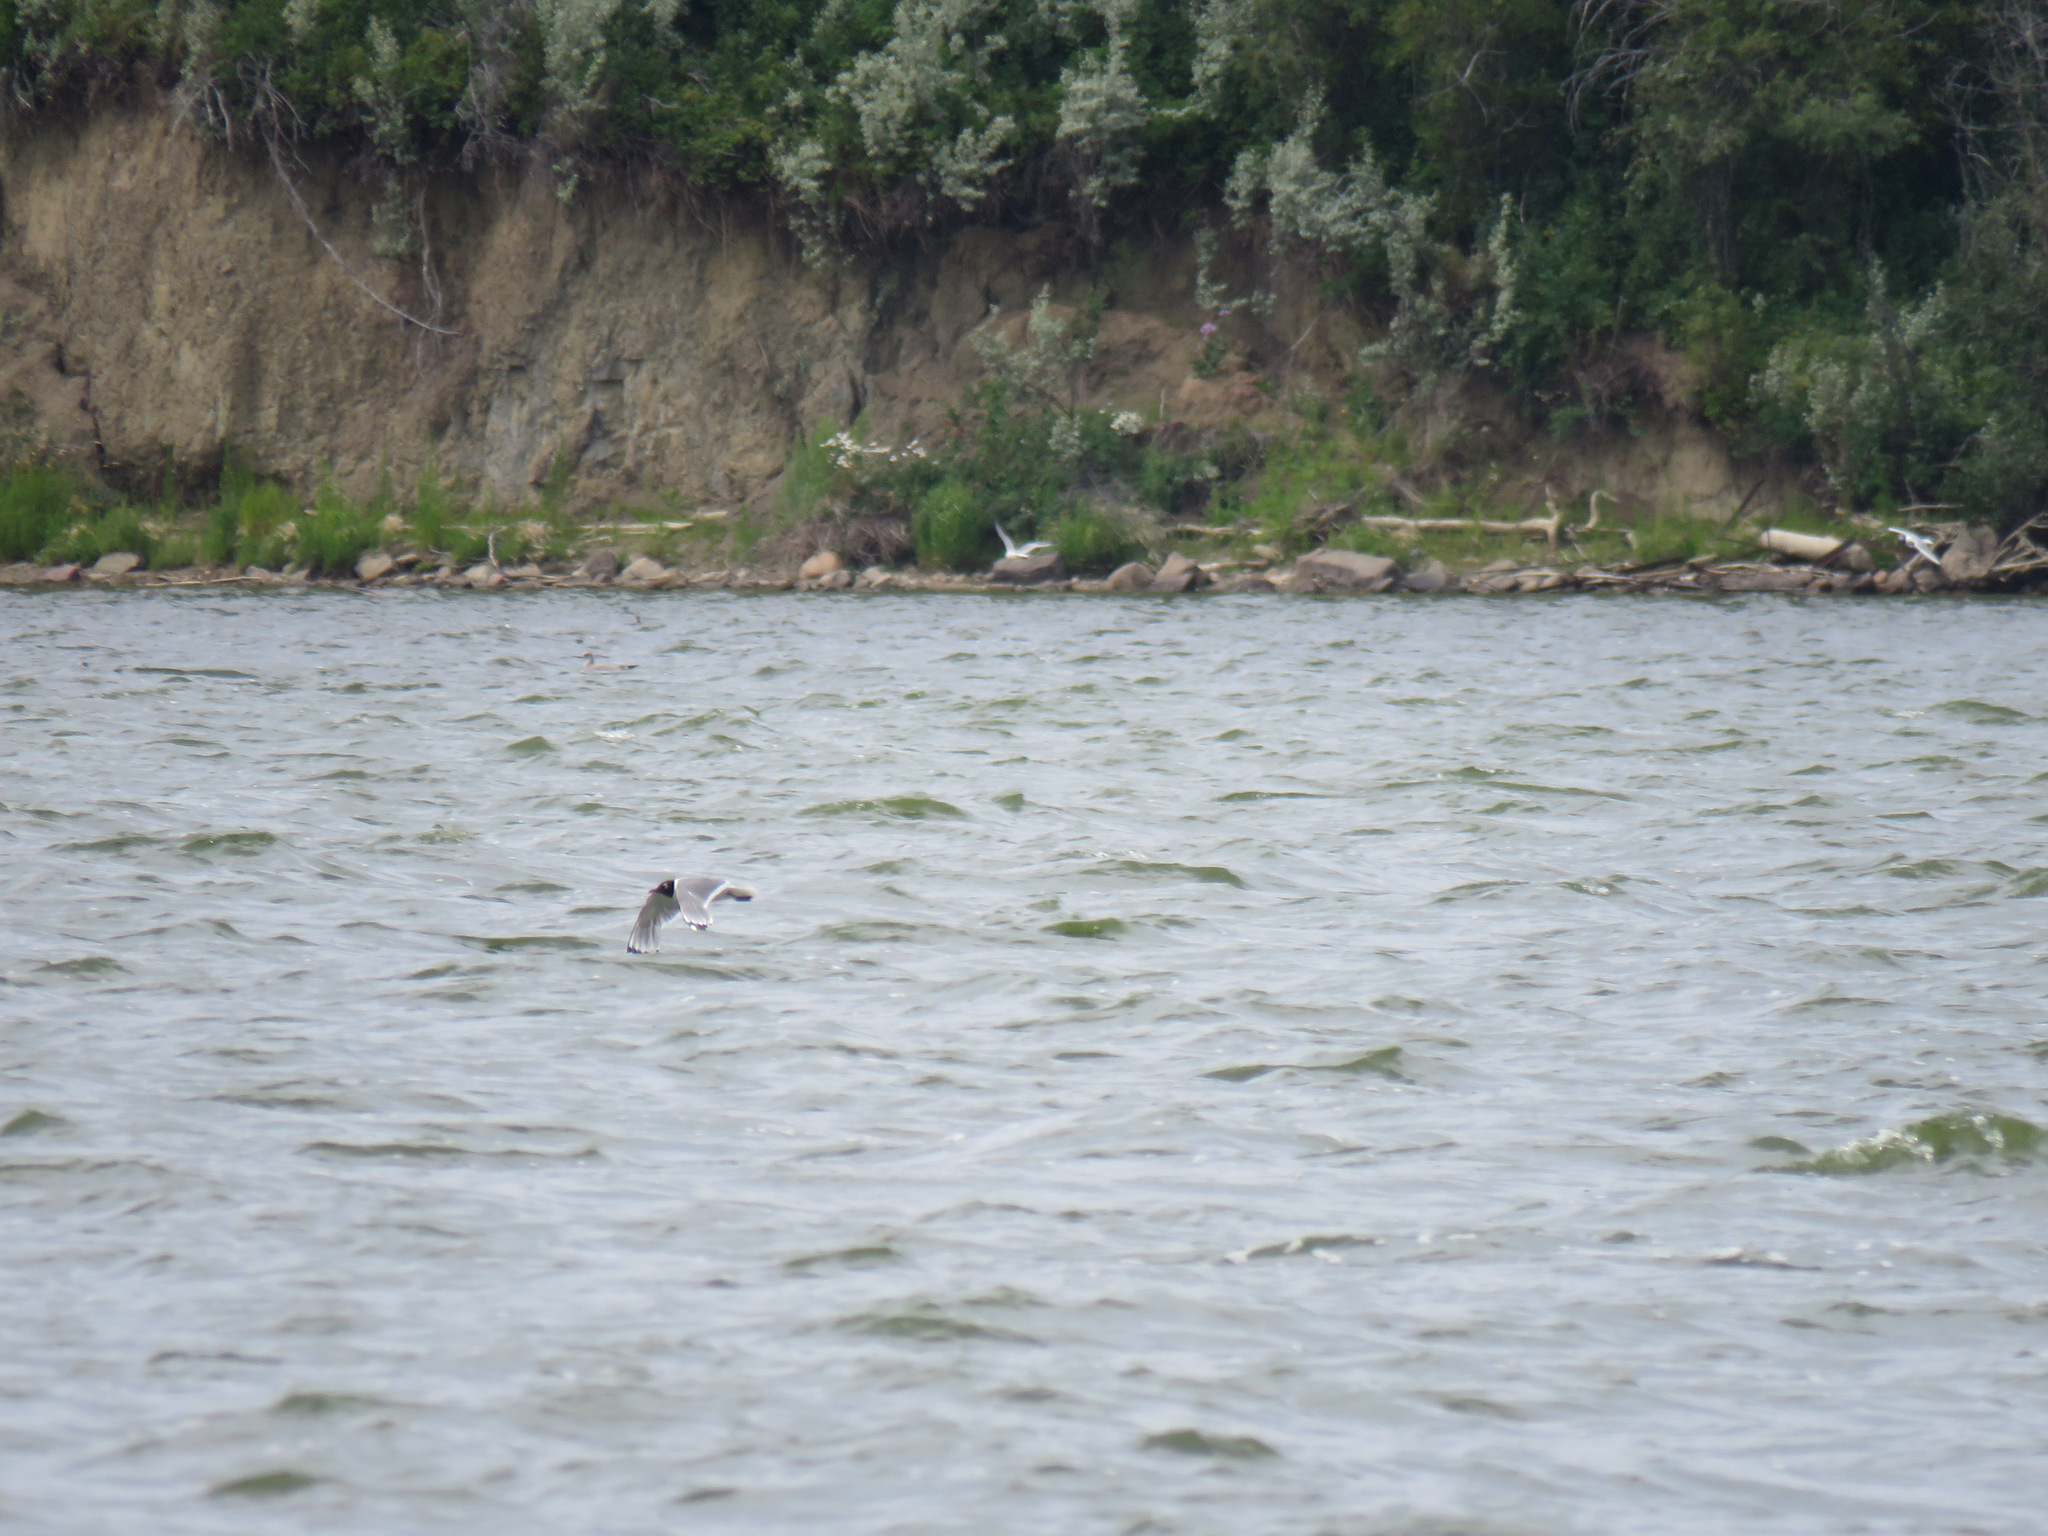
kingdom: Animalia
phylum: Chordata
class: Aves
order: Charadriiformes
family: Laridae
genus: Leucophaeus
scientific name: Leucophaeus pipixcan
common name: Franklin's gull
